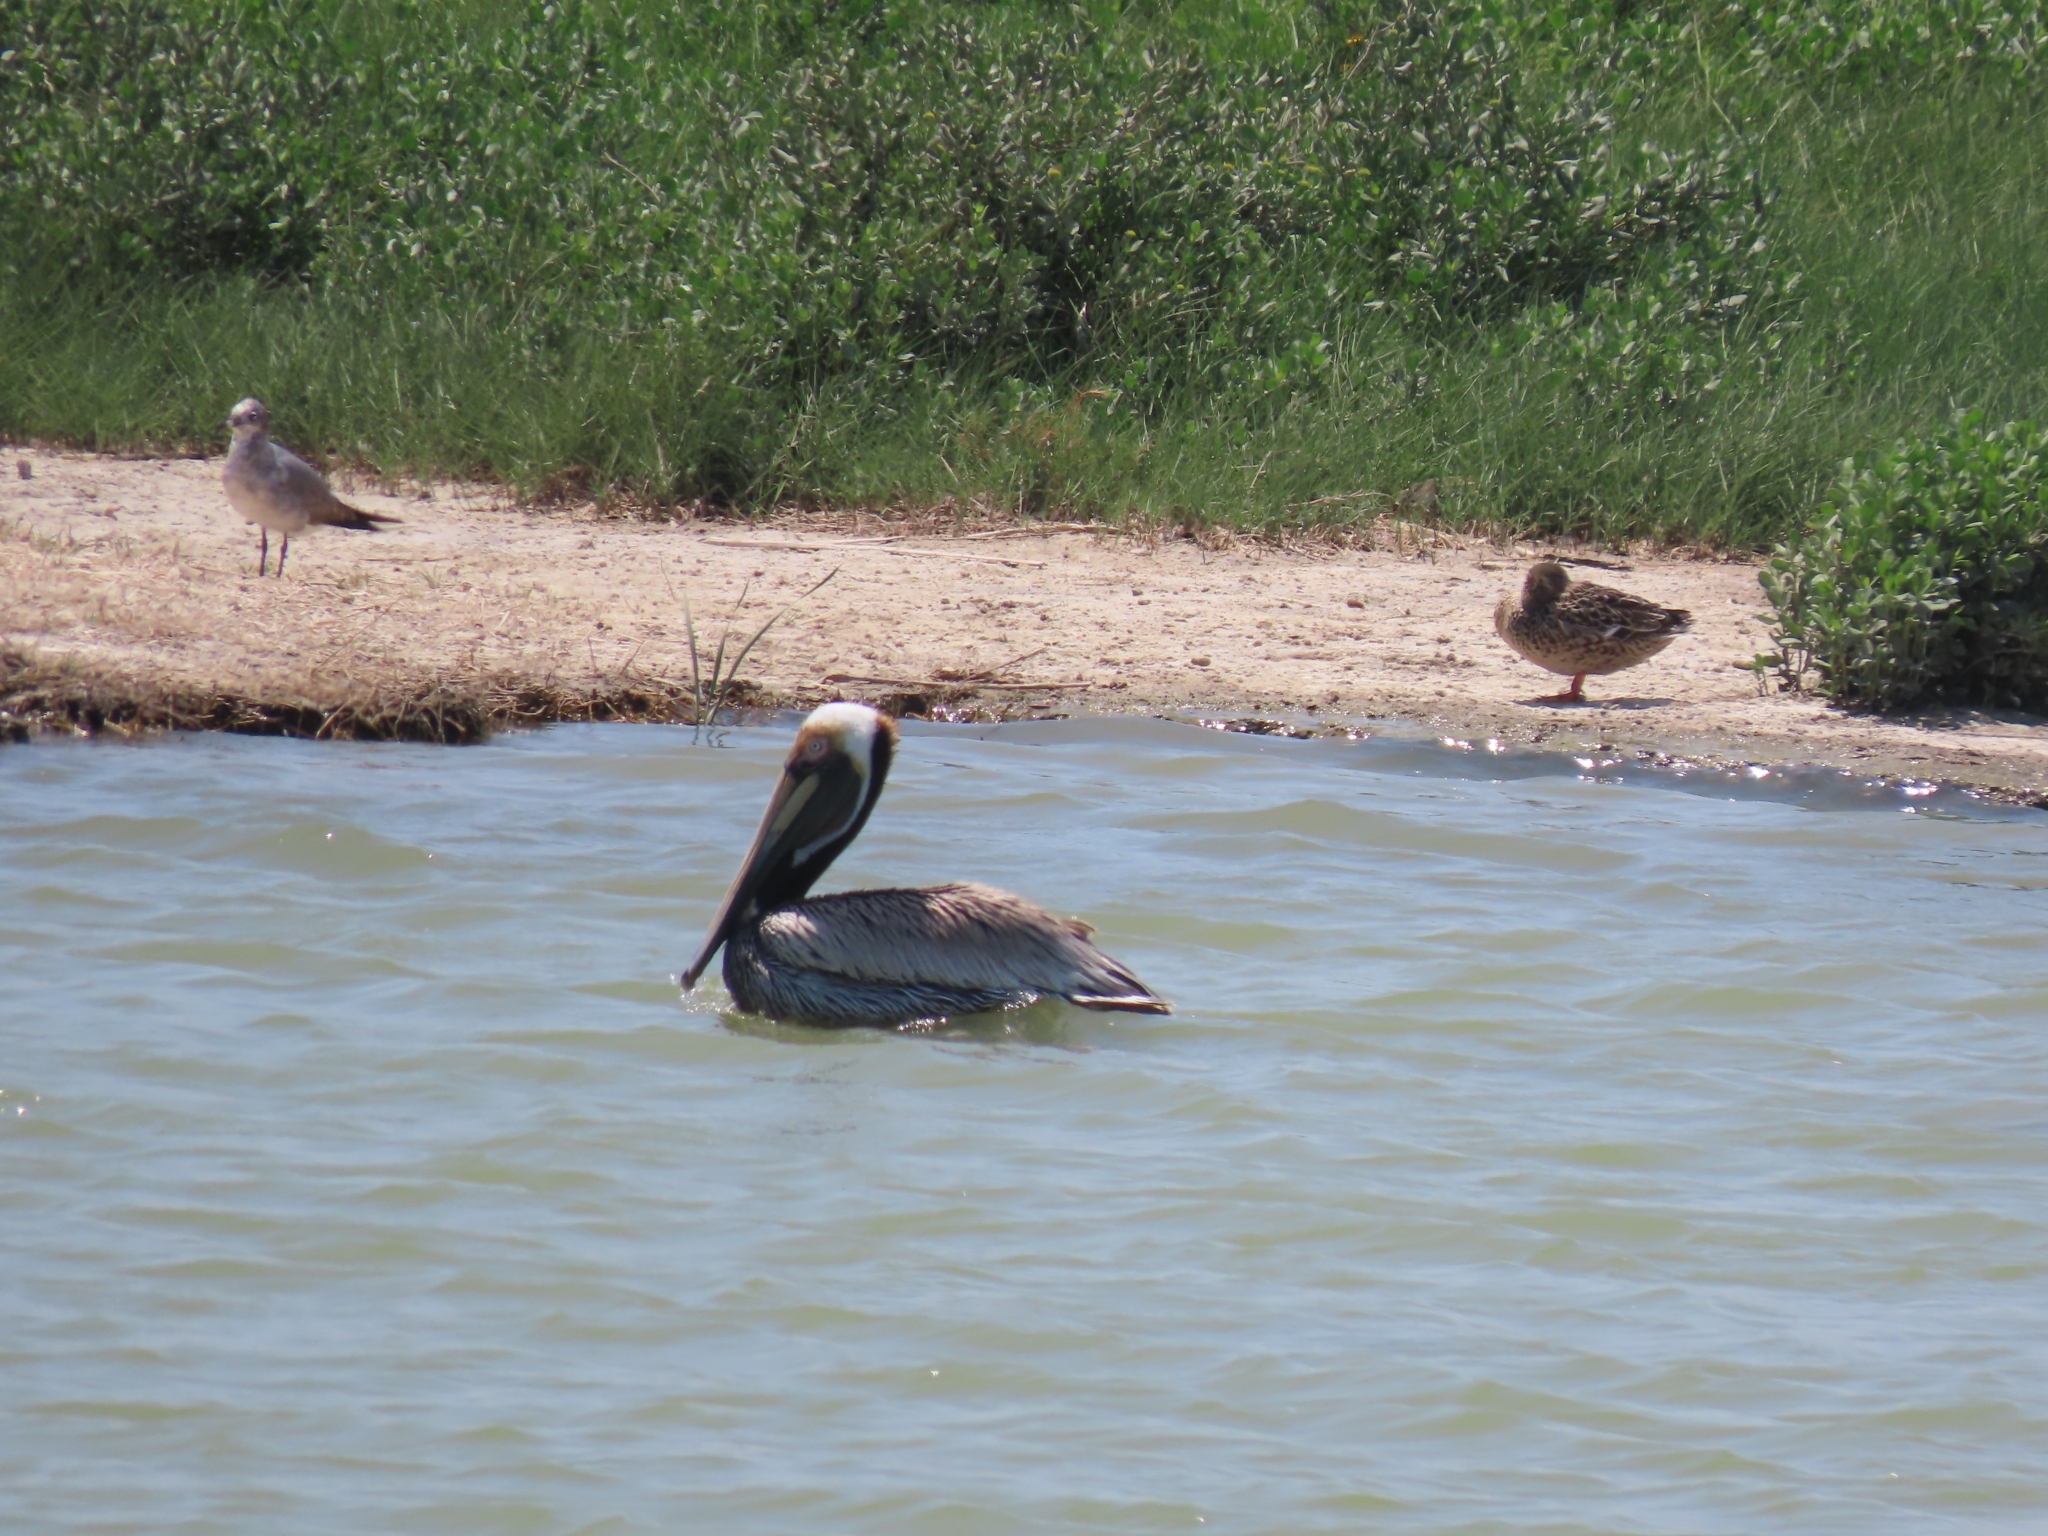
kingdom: Animalia
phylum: Chordata
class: Aves
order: Pelecaniformes
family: Pelecanidae
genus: Pelecanus
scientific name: Pelecanus occidentalis
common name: Brown pelican
